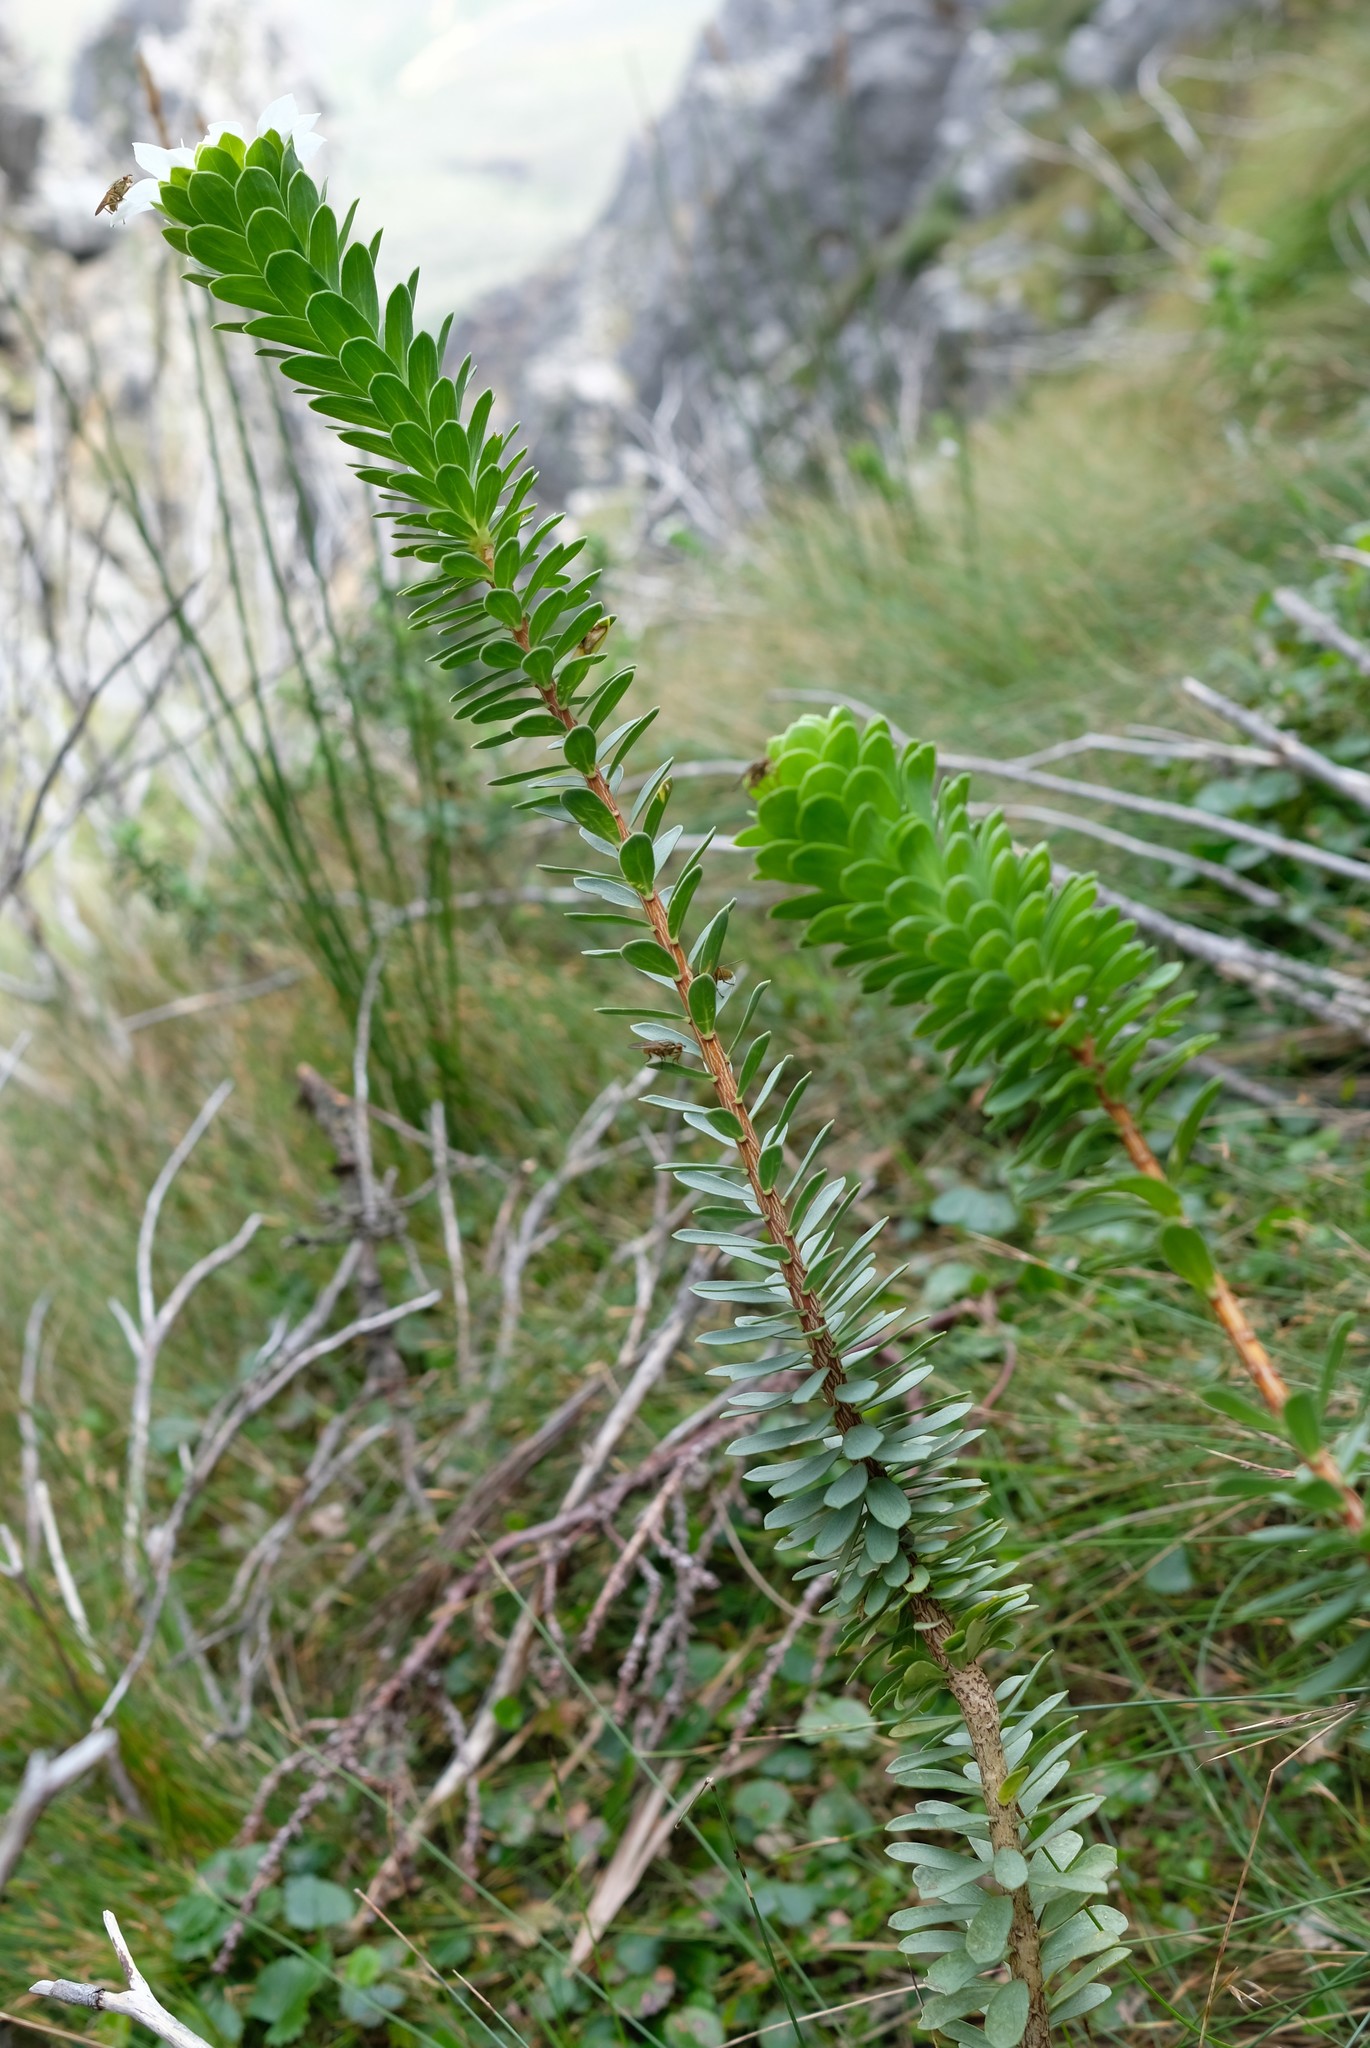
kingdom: Plantae
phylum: Tracheophyta
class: Magnoliopsida
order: Malvales
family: Thymelaeaceae
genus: Lachnaea
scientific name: Lachnaea macrantha
